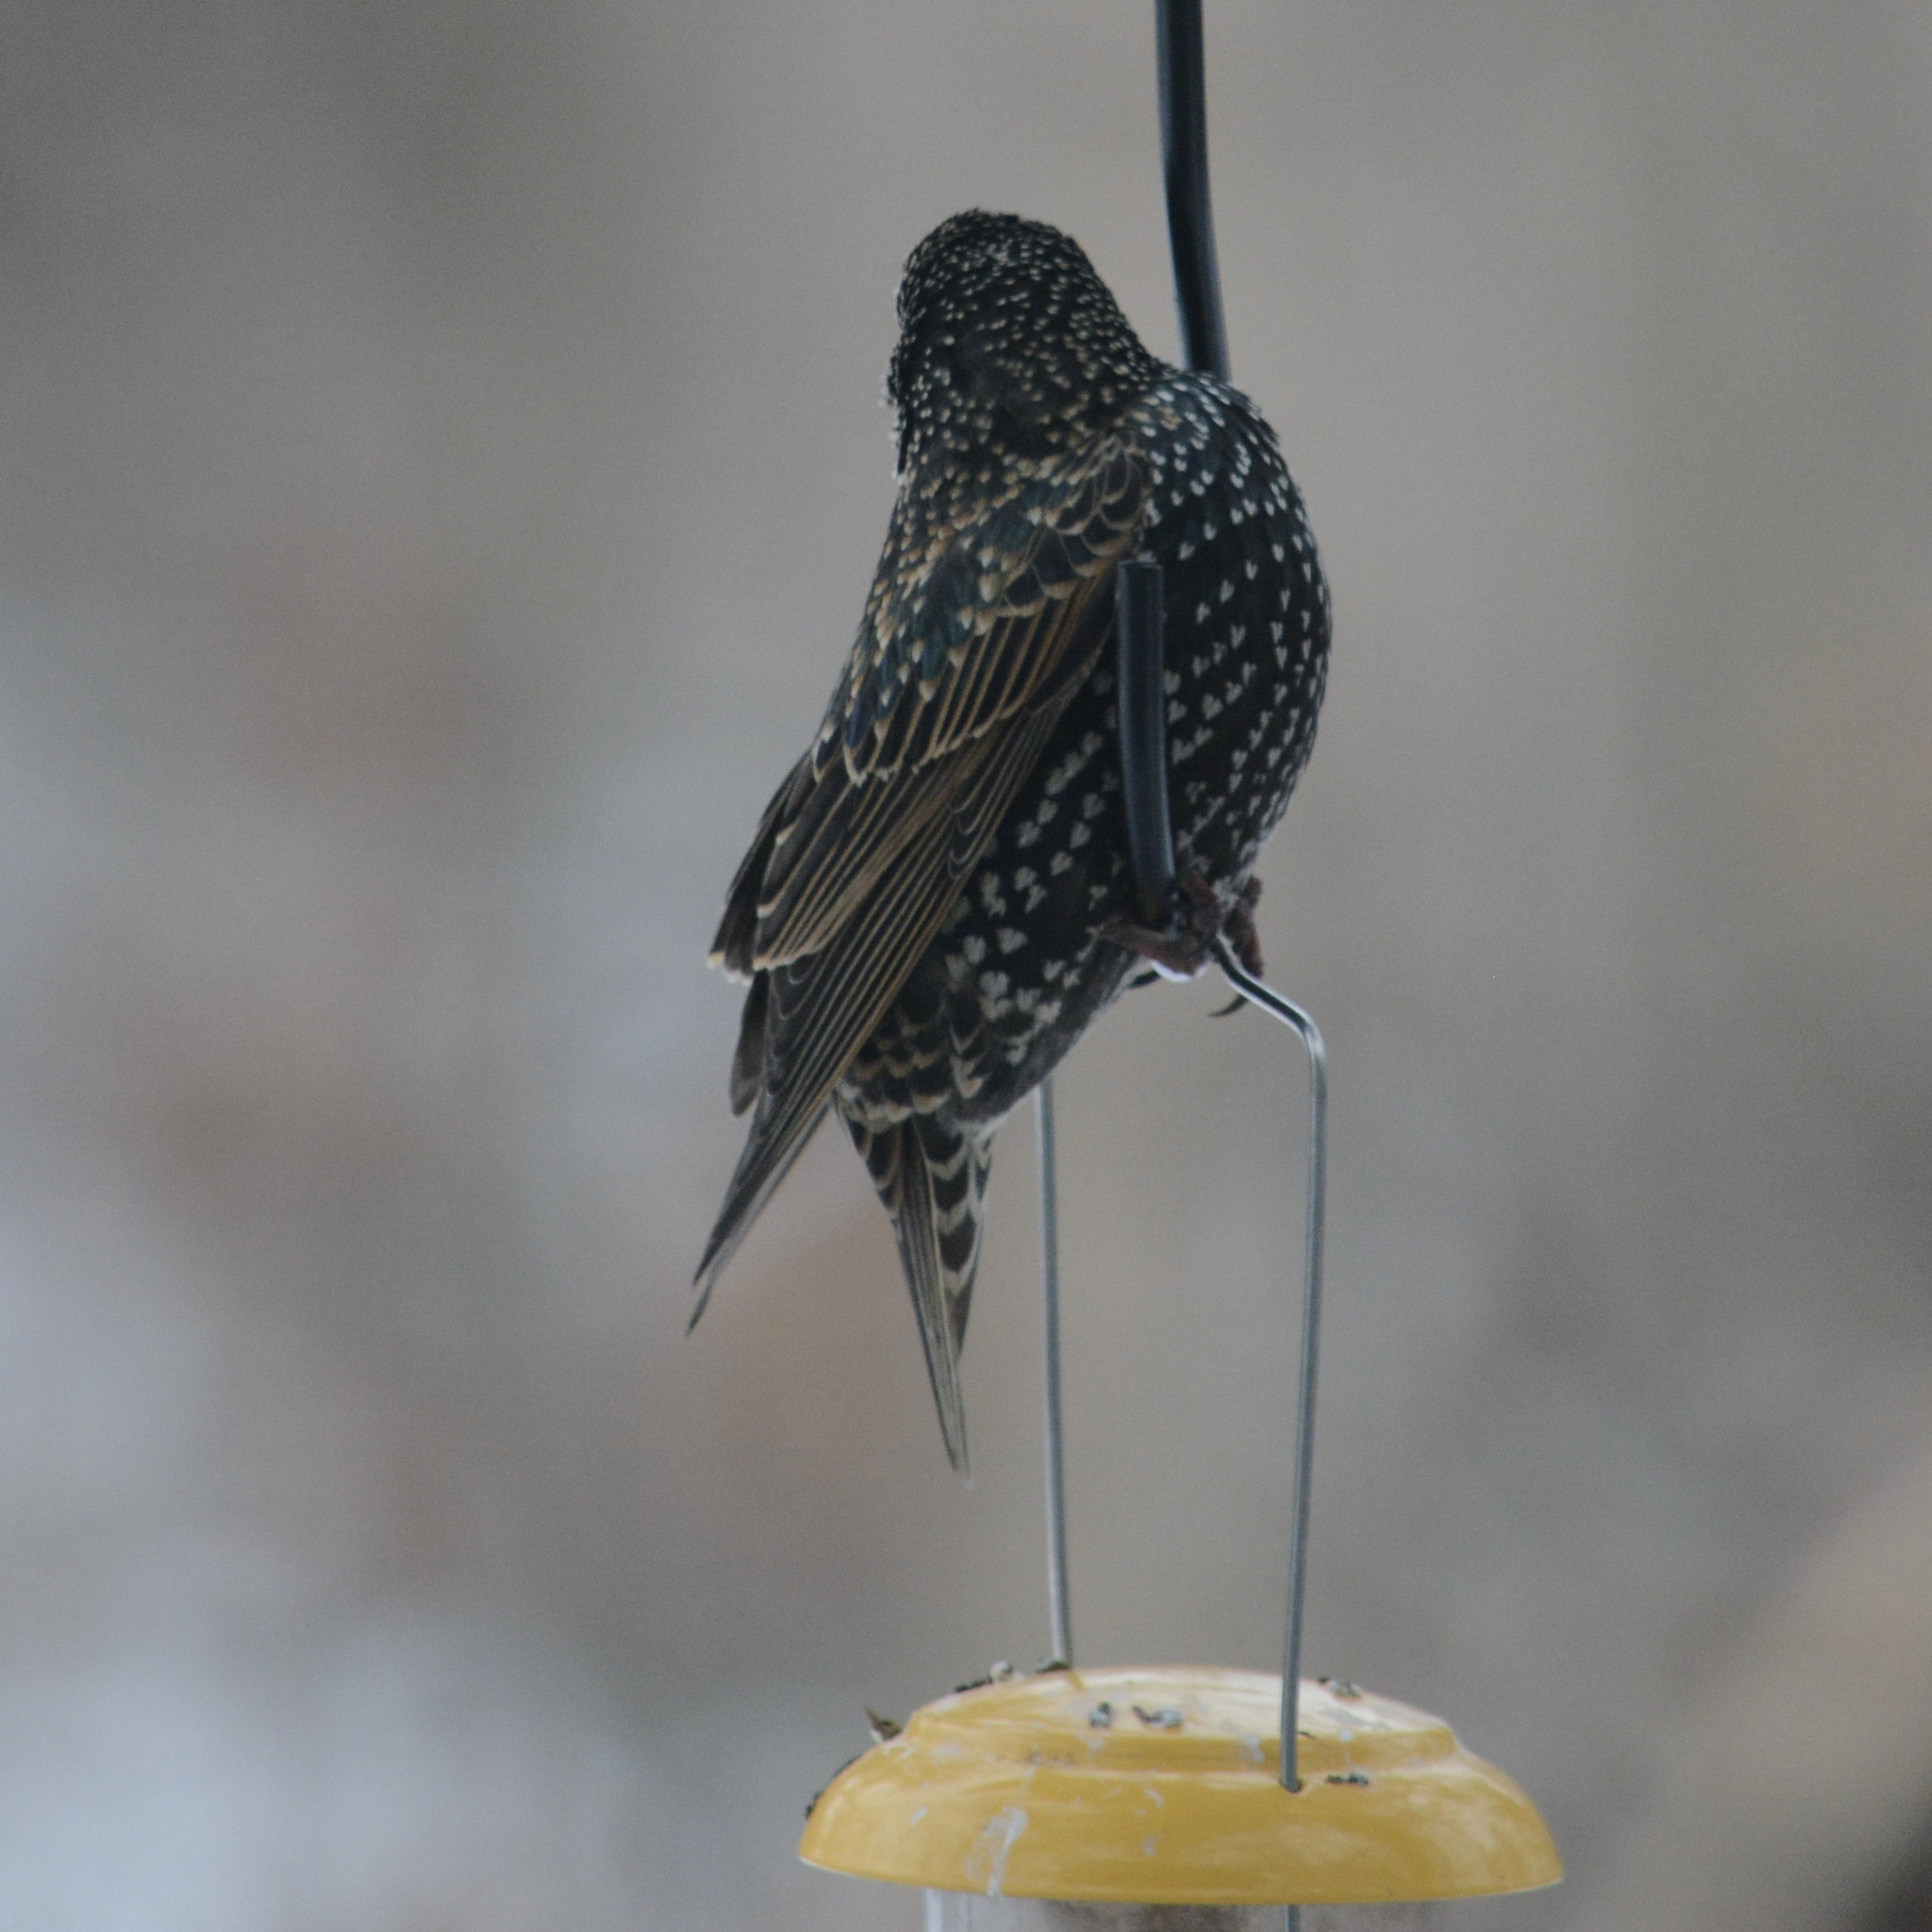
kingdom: Animalia
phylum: Chordata
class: Aves
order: Passeriformes
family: Sturnidae
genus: Sturnus
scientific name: Sturnus vulgaris
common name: Common starling
